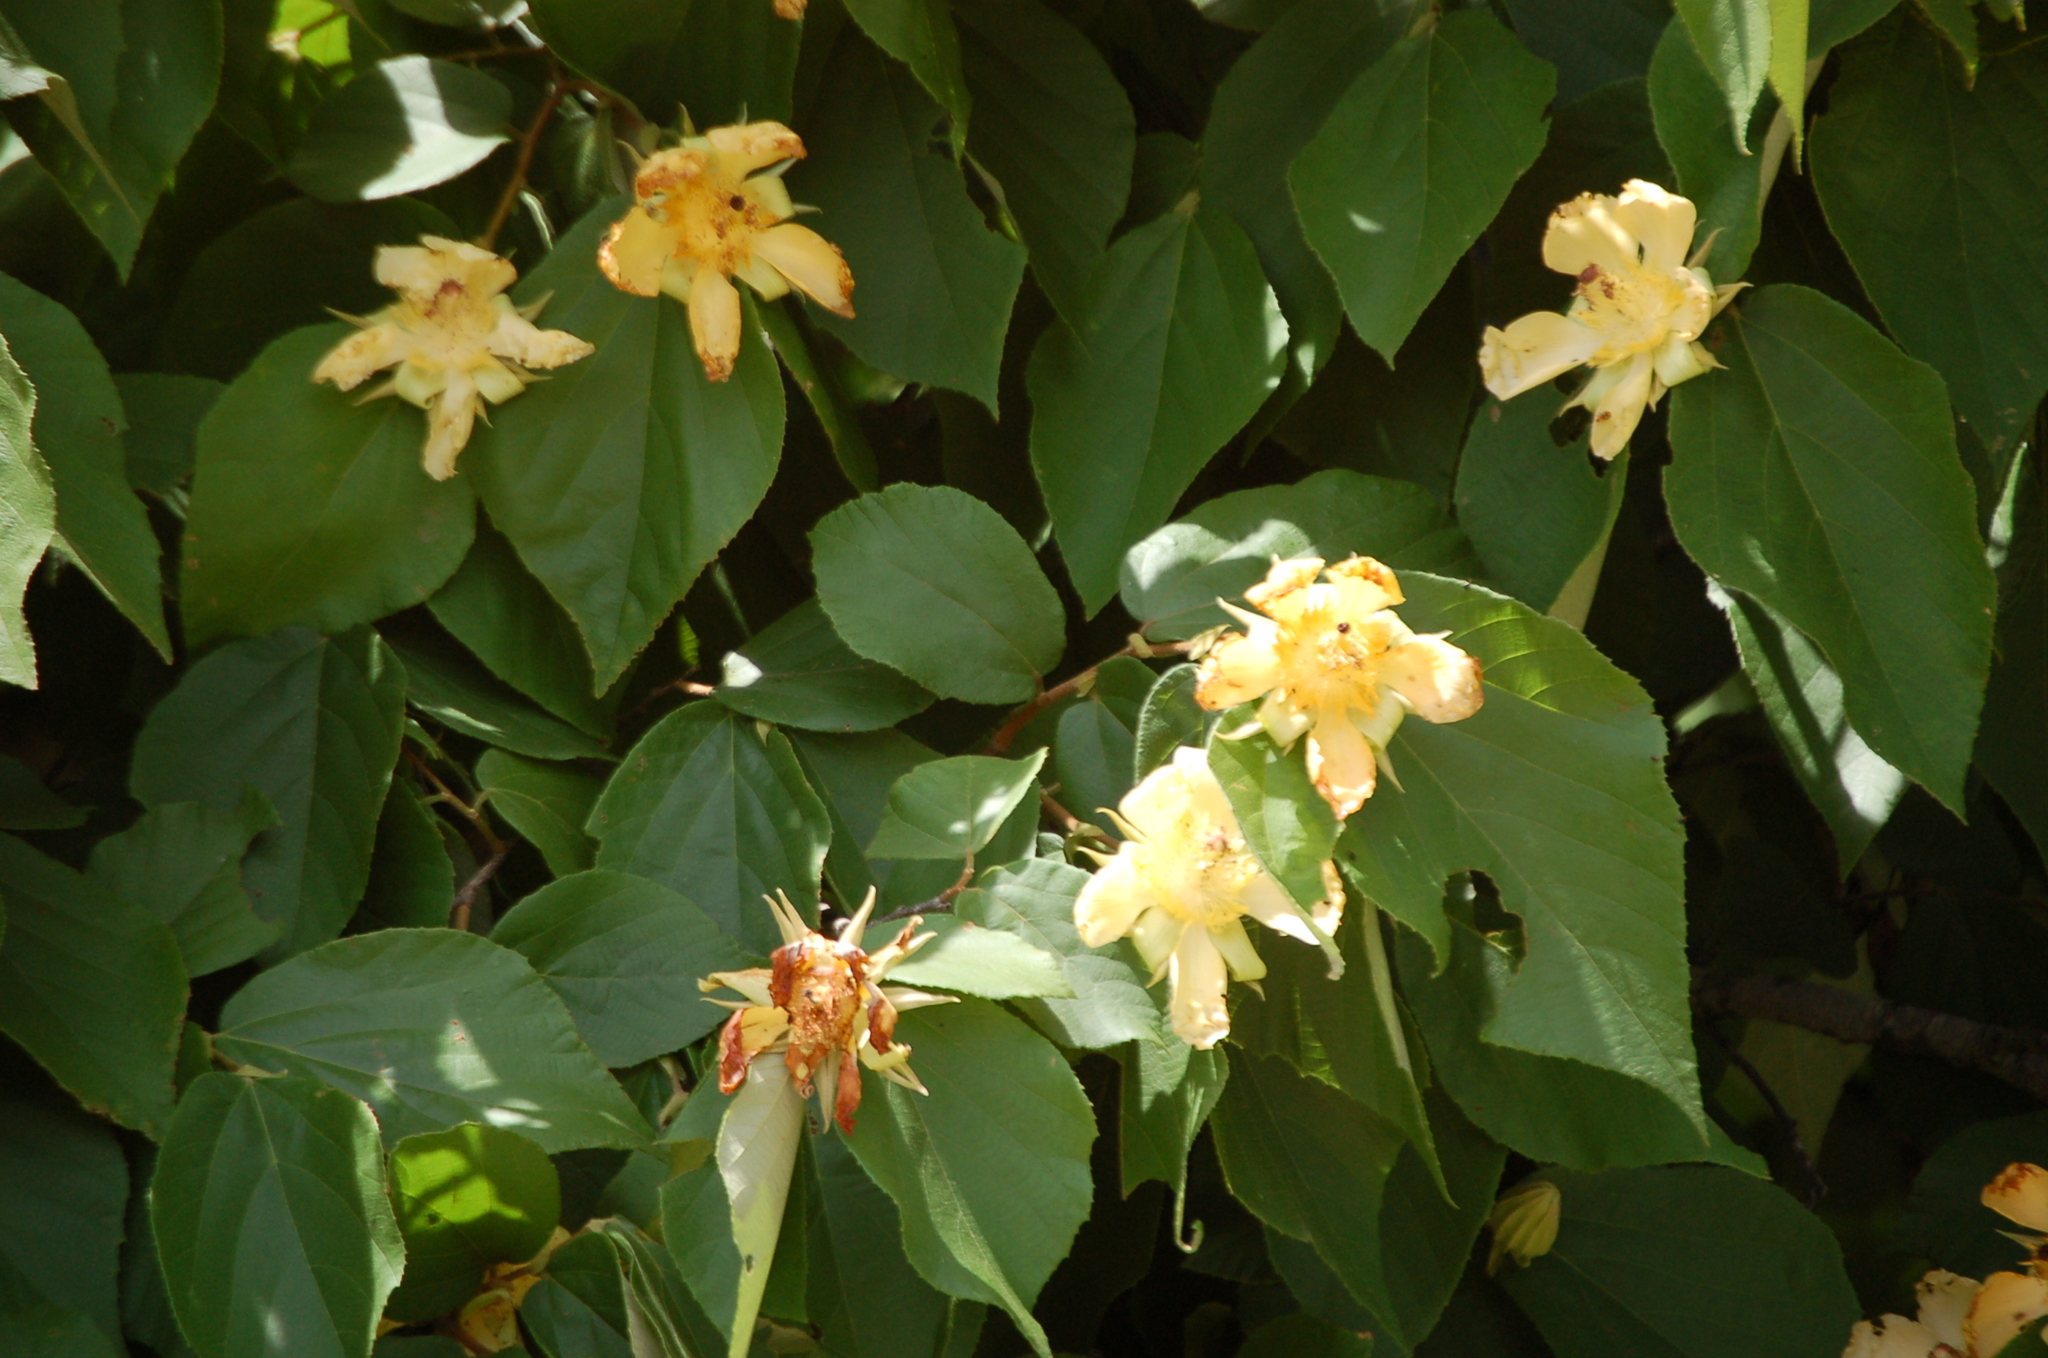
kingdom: Plantae
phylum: Tracheophyta
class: Magnoliopsida
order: Malvales
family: Malvaceae
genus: Luehea
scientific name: Luehea speciosa
